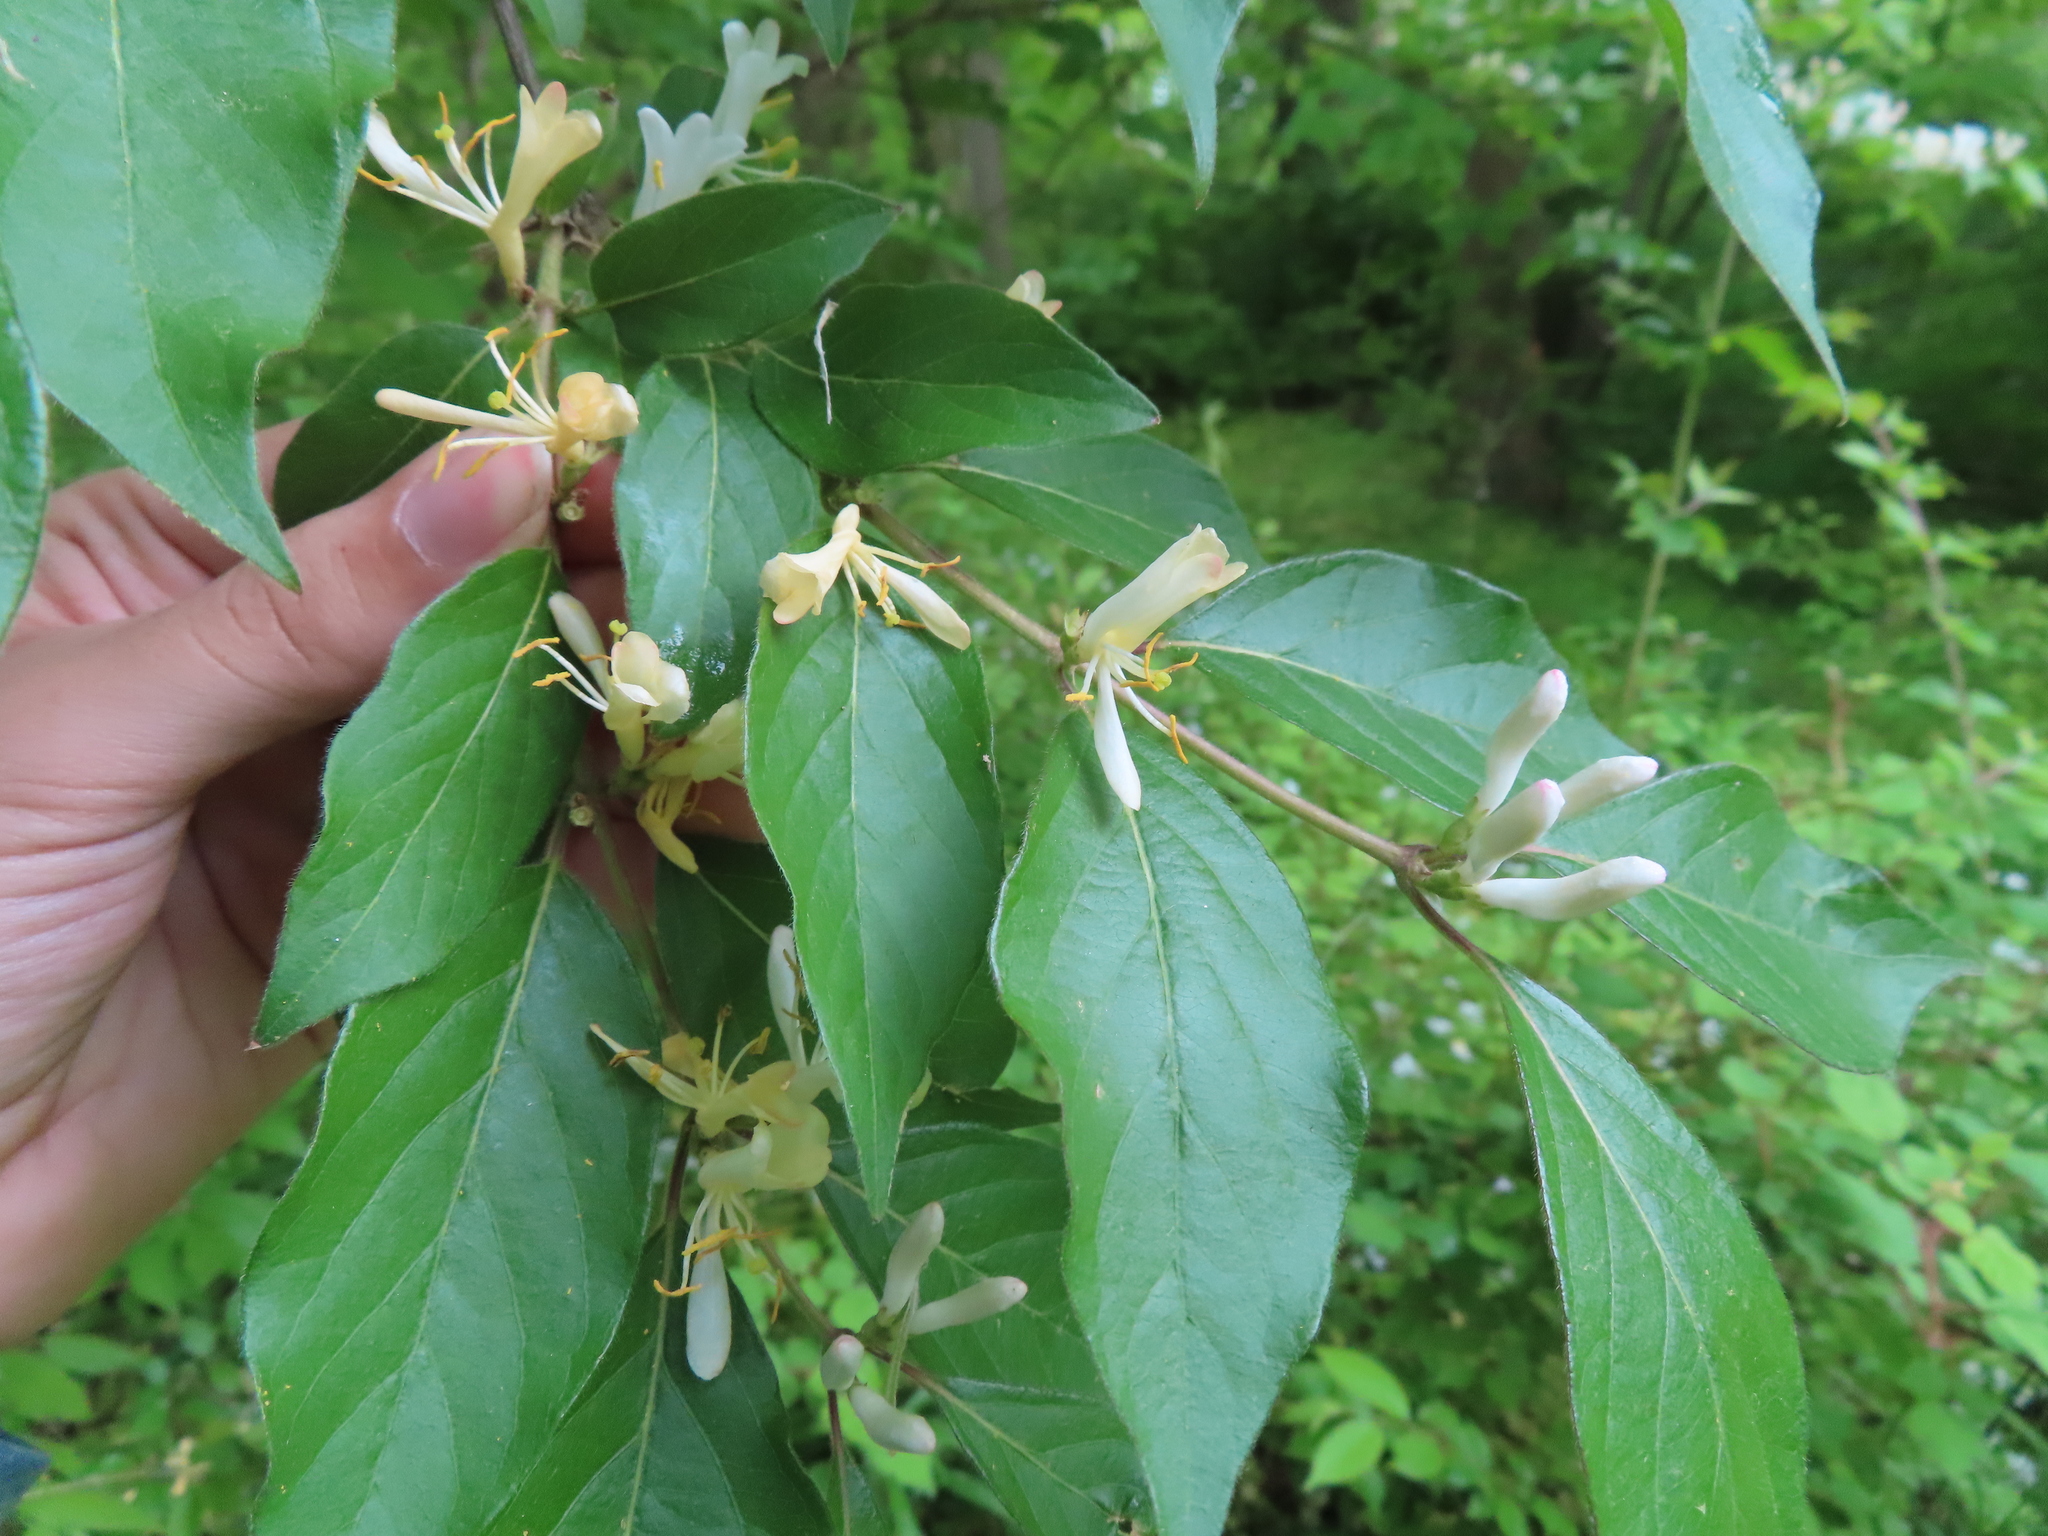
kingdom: Plantae
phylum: Tracheophyta
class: Magnoliopsida
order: Dipsacales
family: Caprifoliaceae
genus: Lonicera
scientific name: Lonicera maackii
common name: Amur honeysuckle
